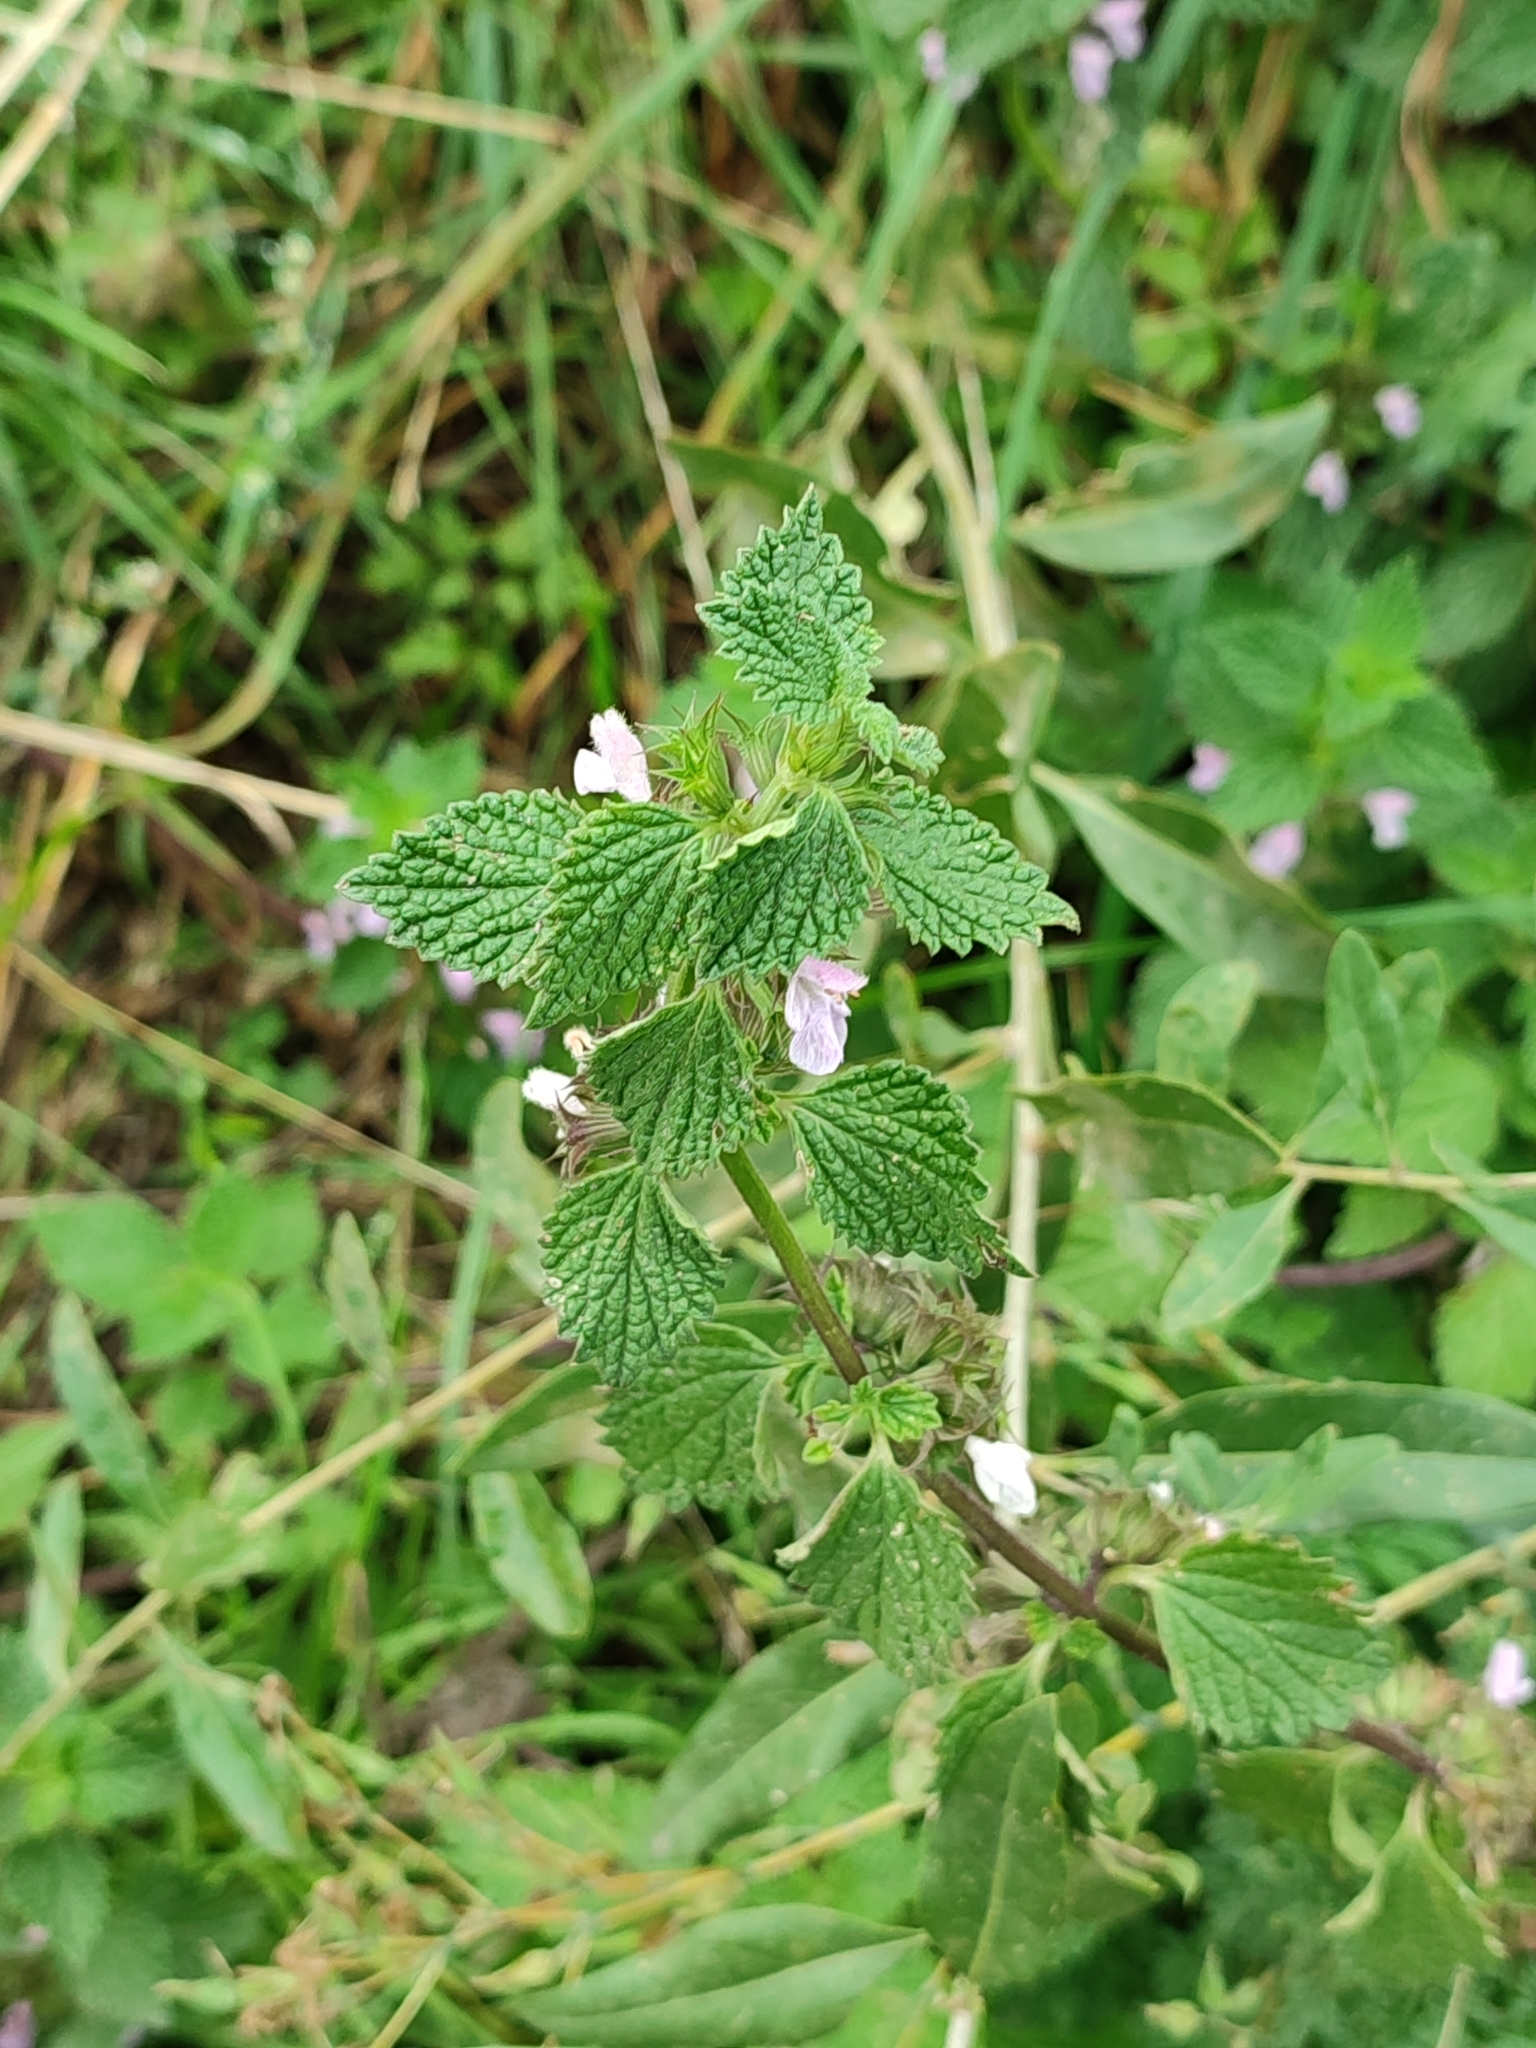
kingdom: Plantae
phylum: Tracheophyta
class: Magnoliopsida
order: Lamiales
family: Lamiaceae
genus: Ballota
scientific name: Ballota nigra
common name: Black horehound
